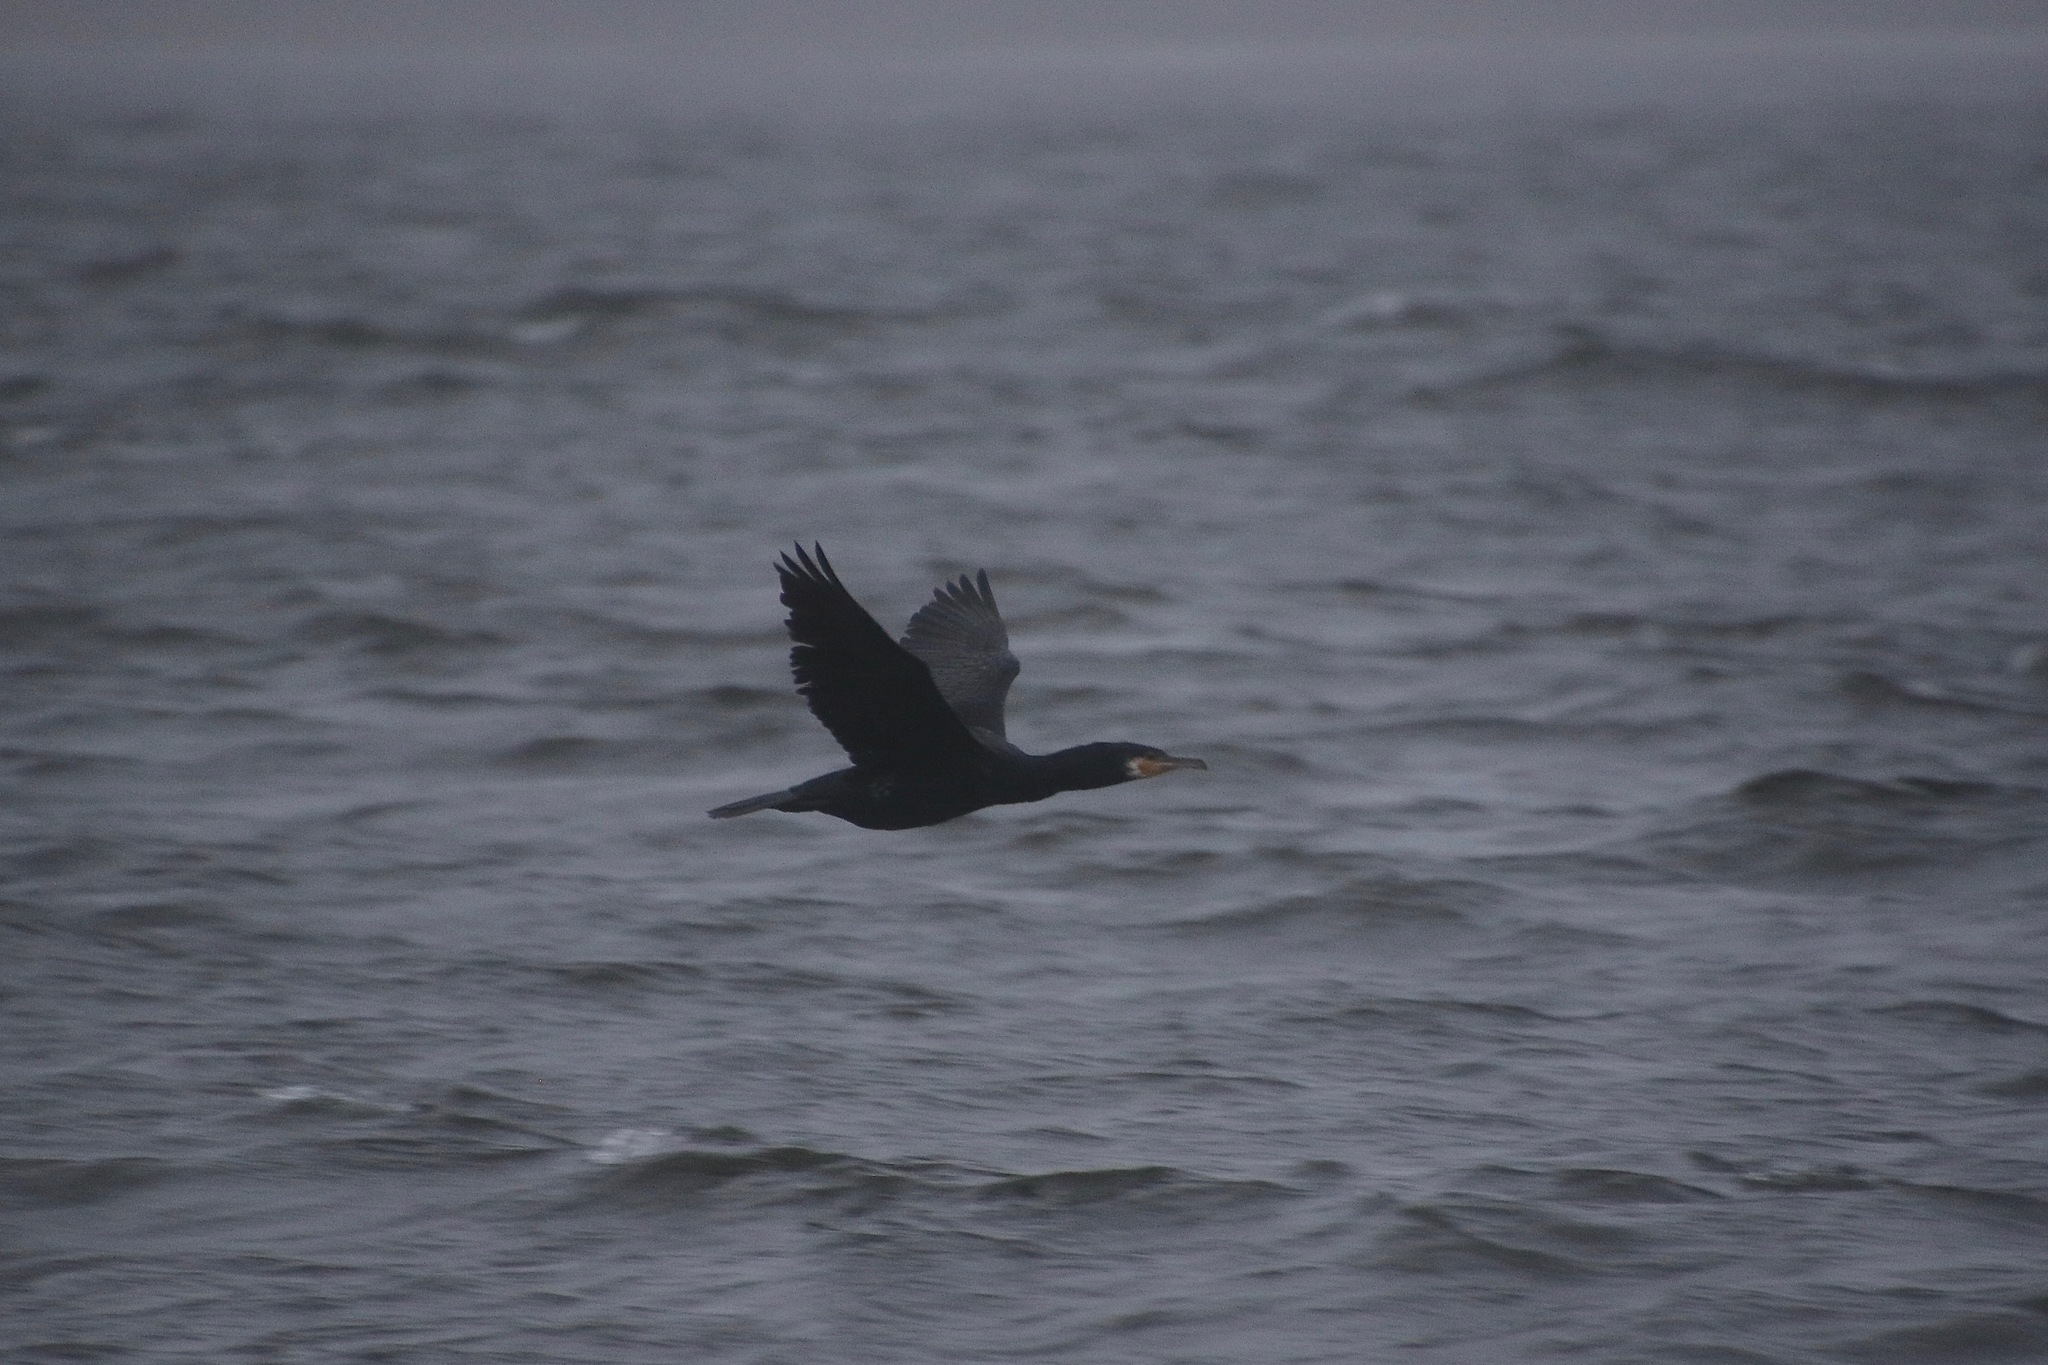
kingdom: Animalia
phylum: Chordata
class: Aves
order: Suliformes
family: Phalacrocoracidae
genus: Phalacrocorax
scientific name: Phalacrocorax carbo
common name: Great cormorant
